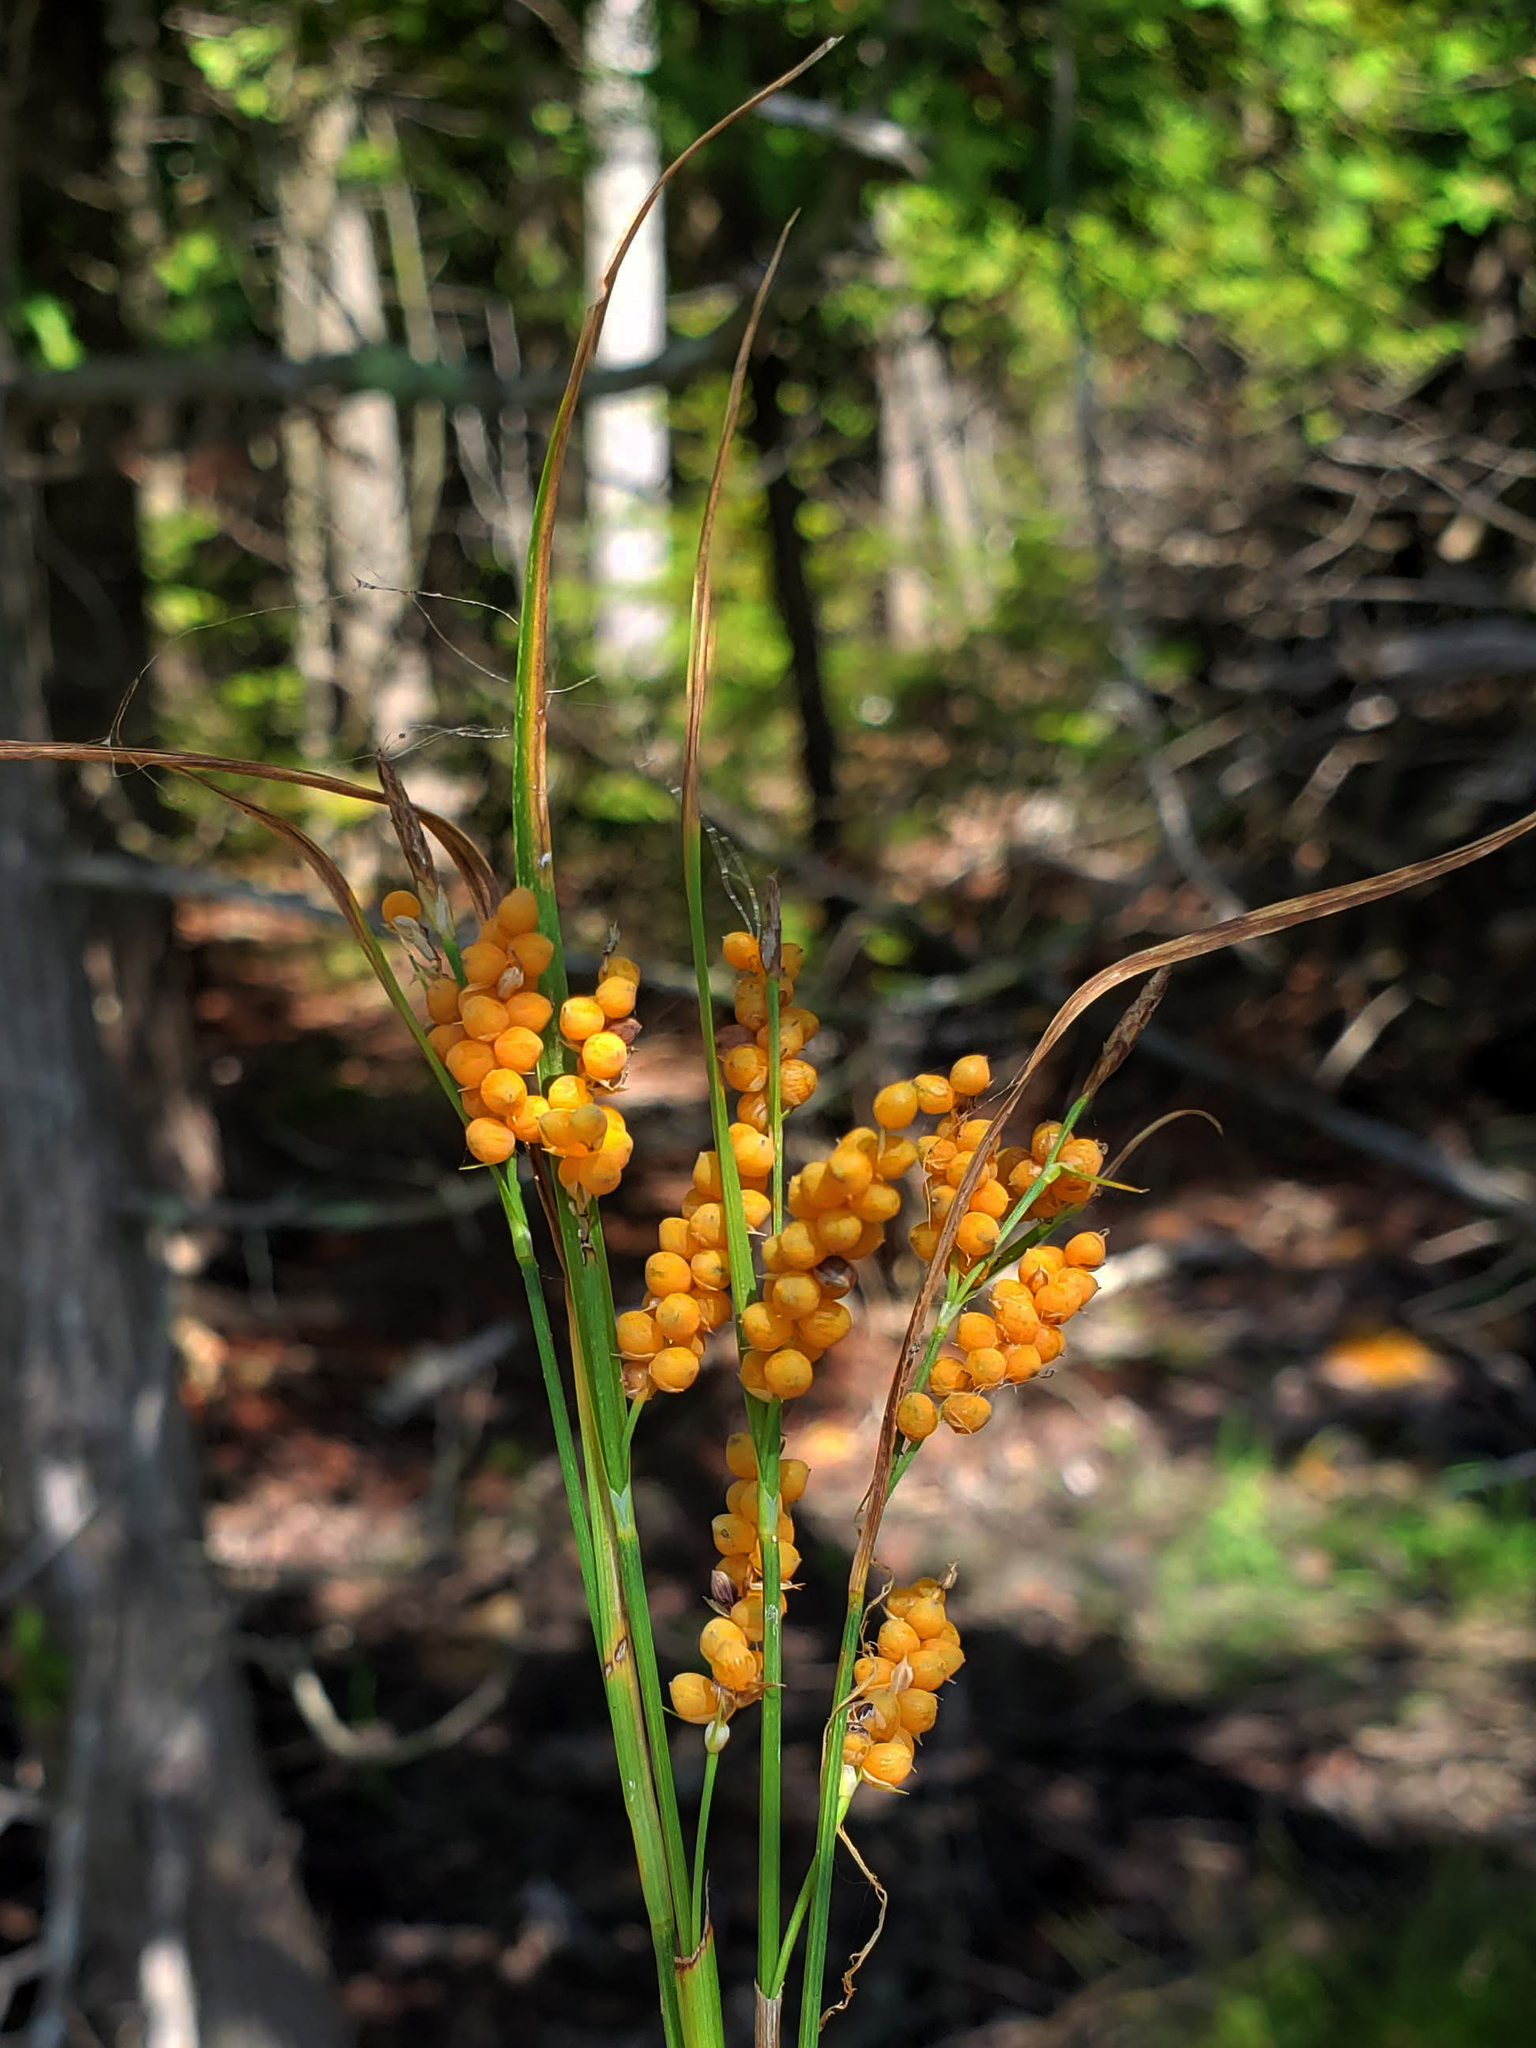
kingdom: Plantae
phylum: Tracheophyta
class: Liliopsida
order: Poales
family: Cyperaceae
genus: Carex
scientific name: Carex aurea
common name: Golden sedge
